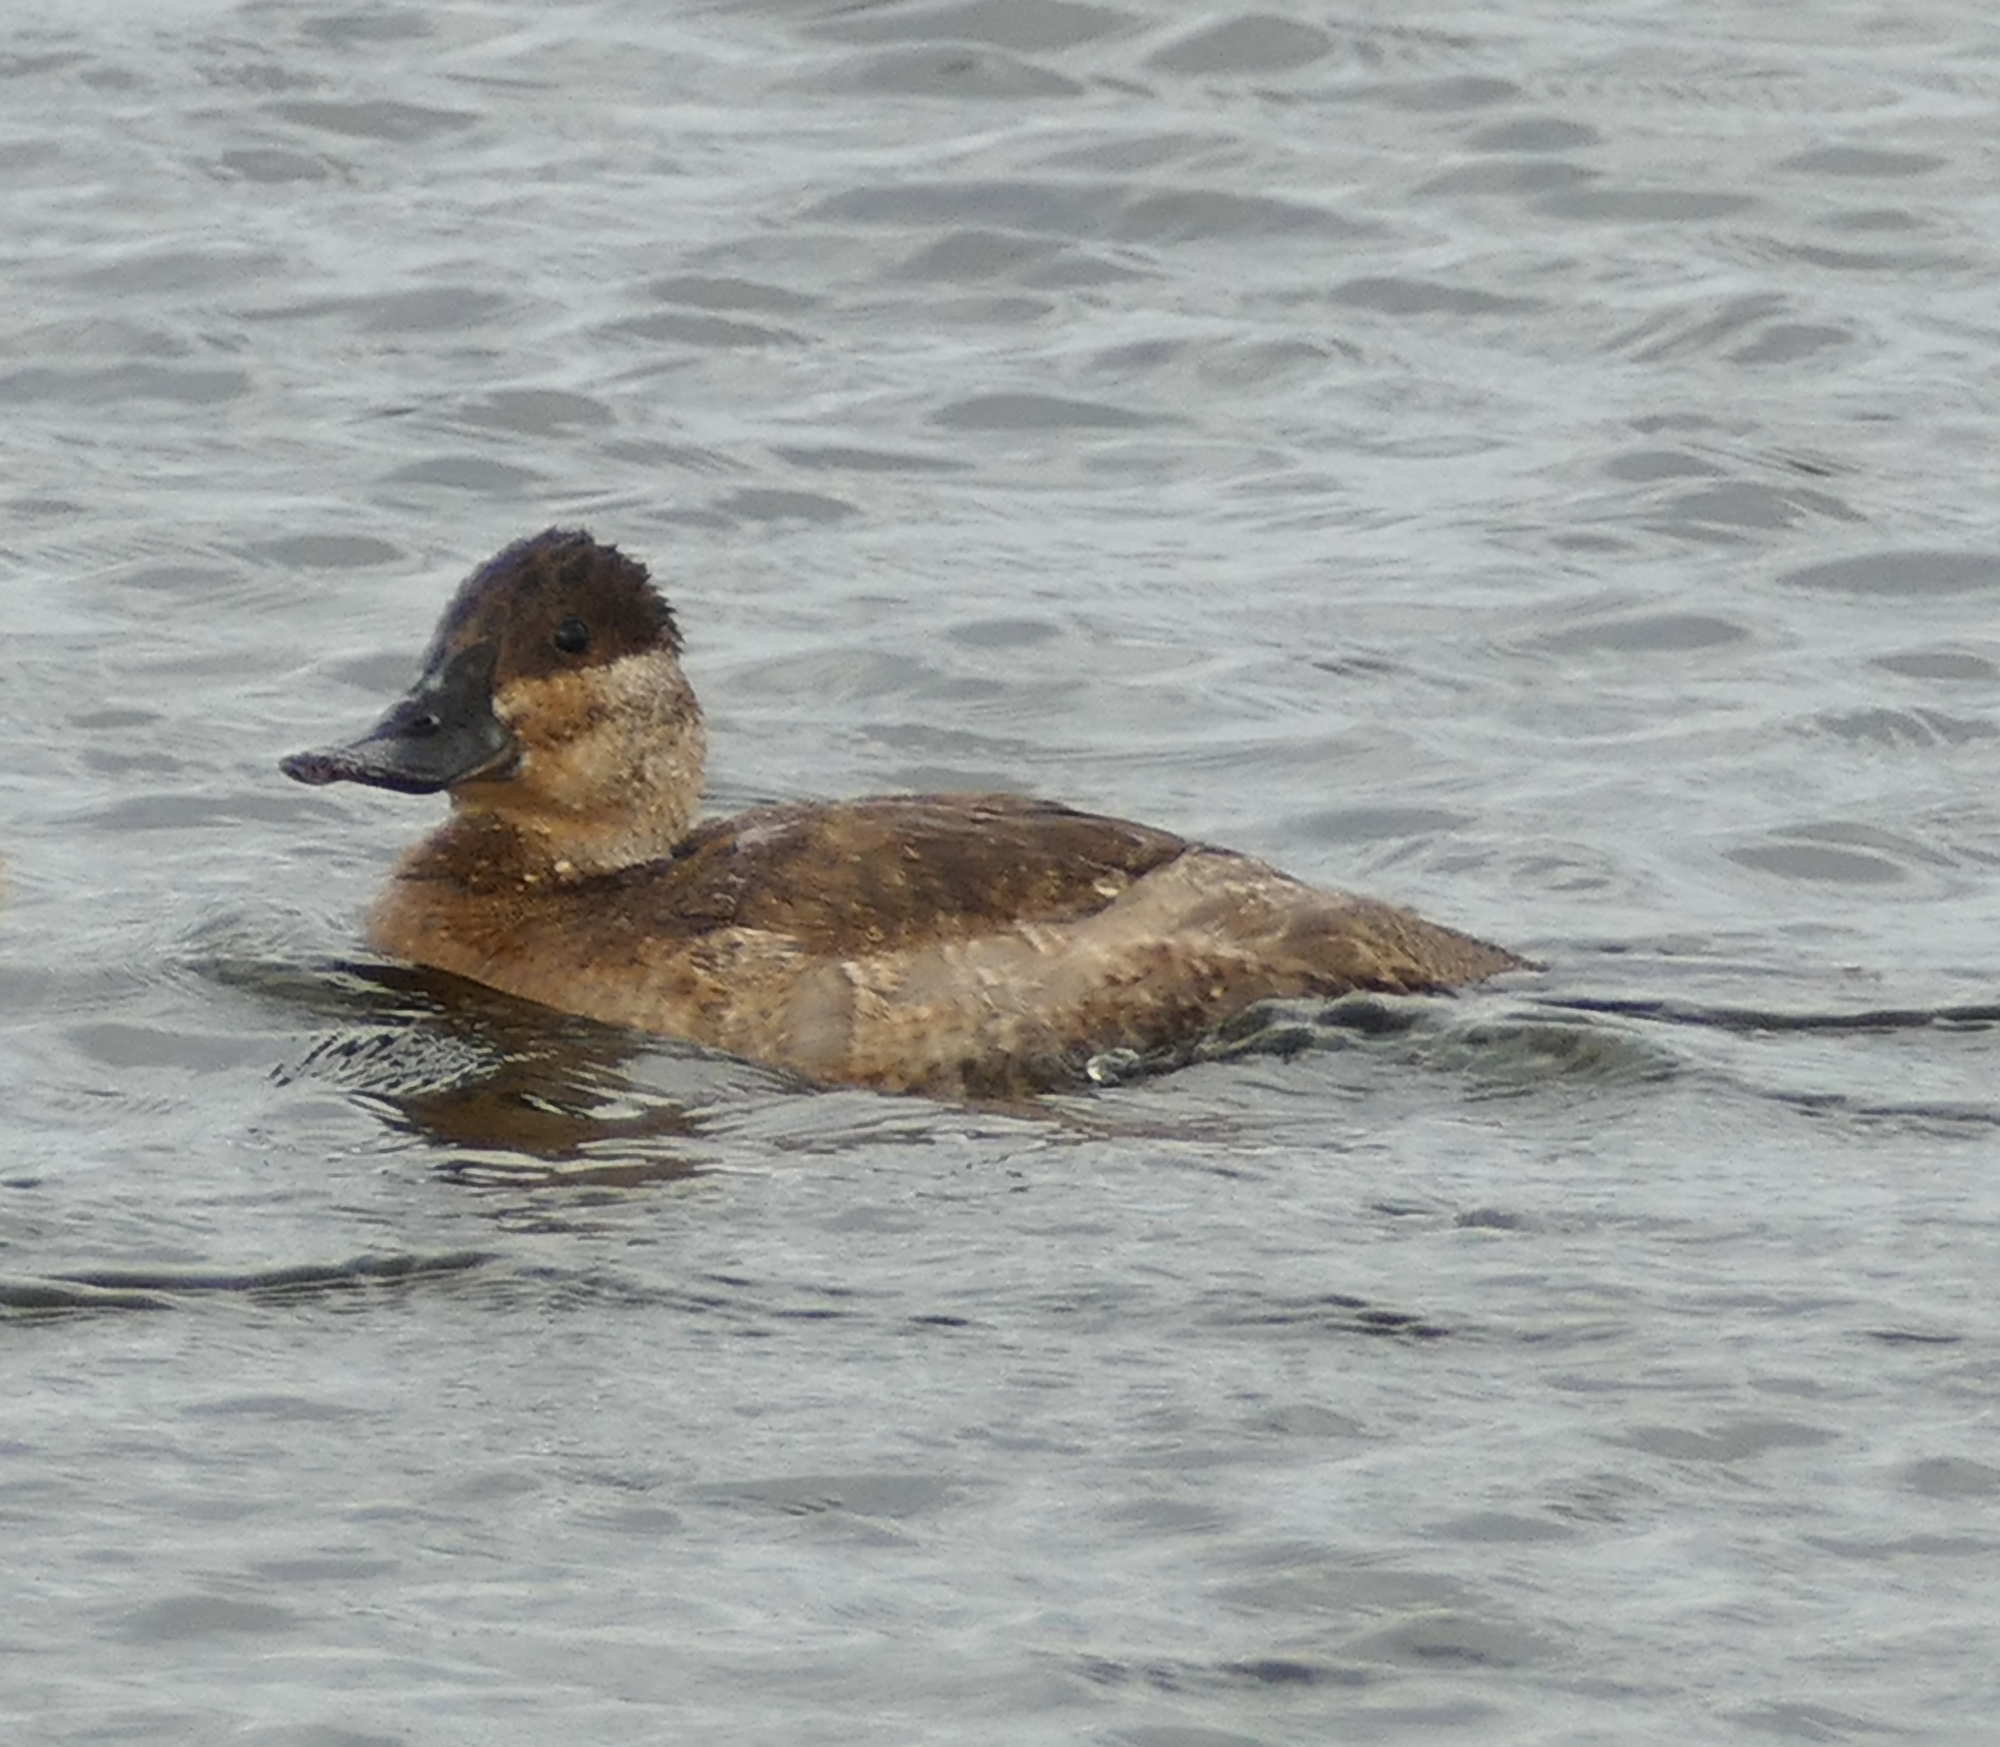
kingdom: Animalia
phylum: Chordata
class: Aves
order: Anseriformes
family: Anatidae
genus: Oxyura
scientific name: Oxyura jamaicensis
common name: Ruddy duck
